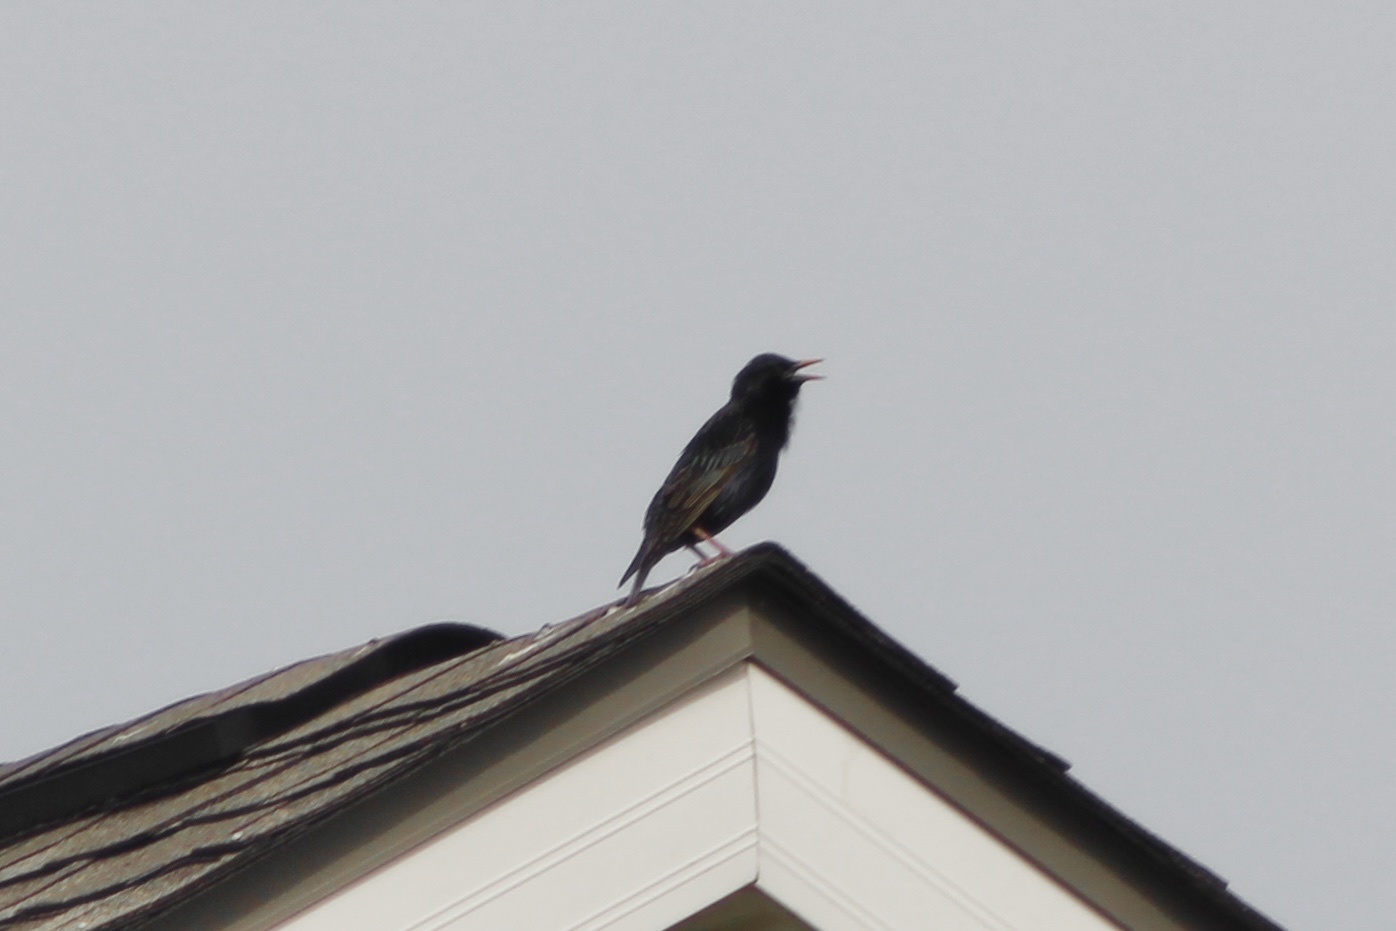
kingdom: Animalia
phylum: Chordata
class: Aves
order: Passeriformes
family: Sturnidae
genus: Sturnus
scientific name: Sturnus vulgaris
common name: Common starling
